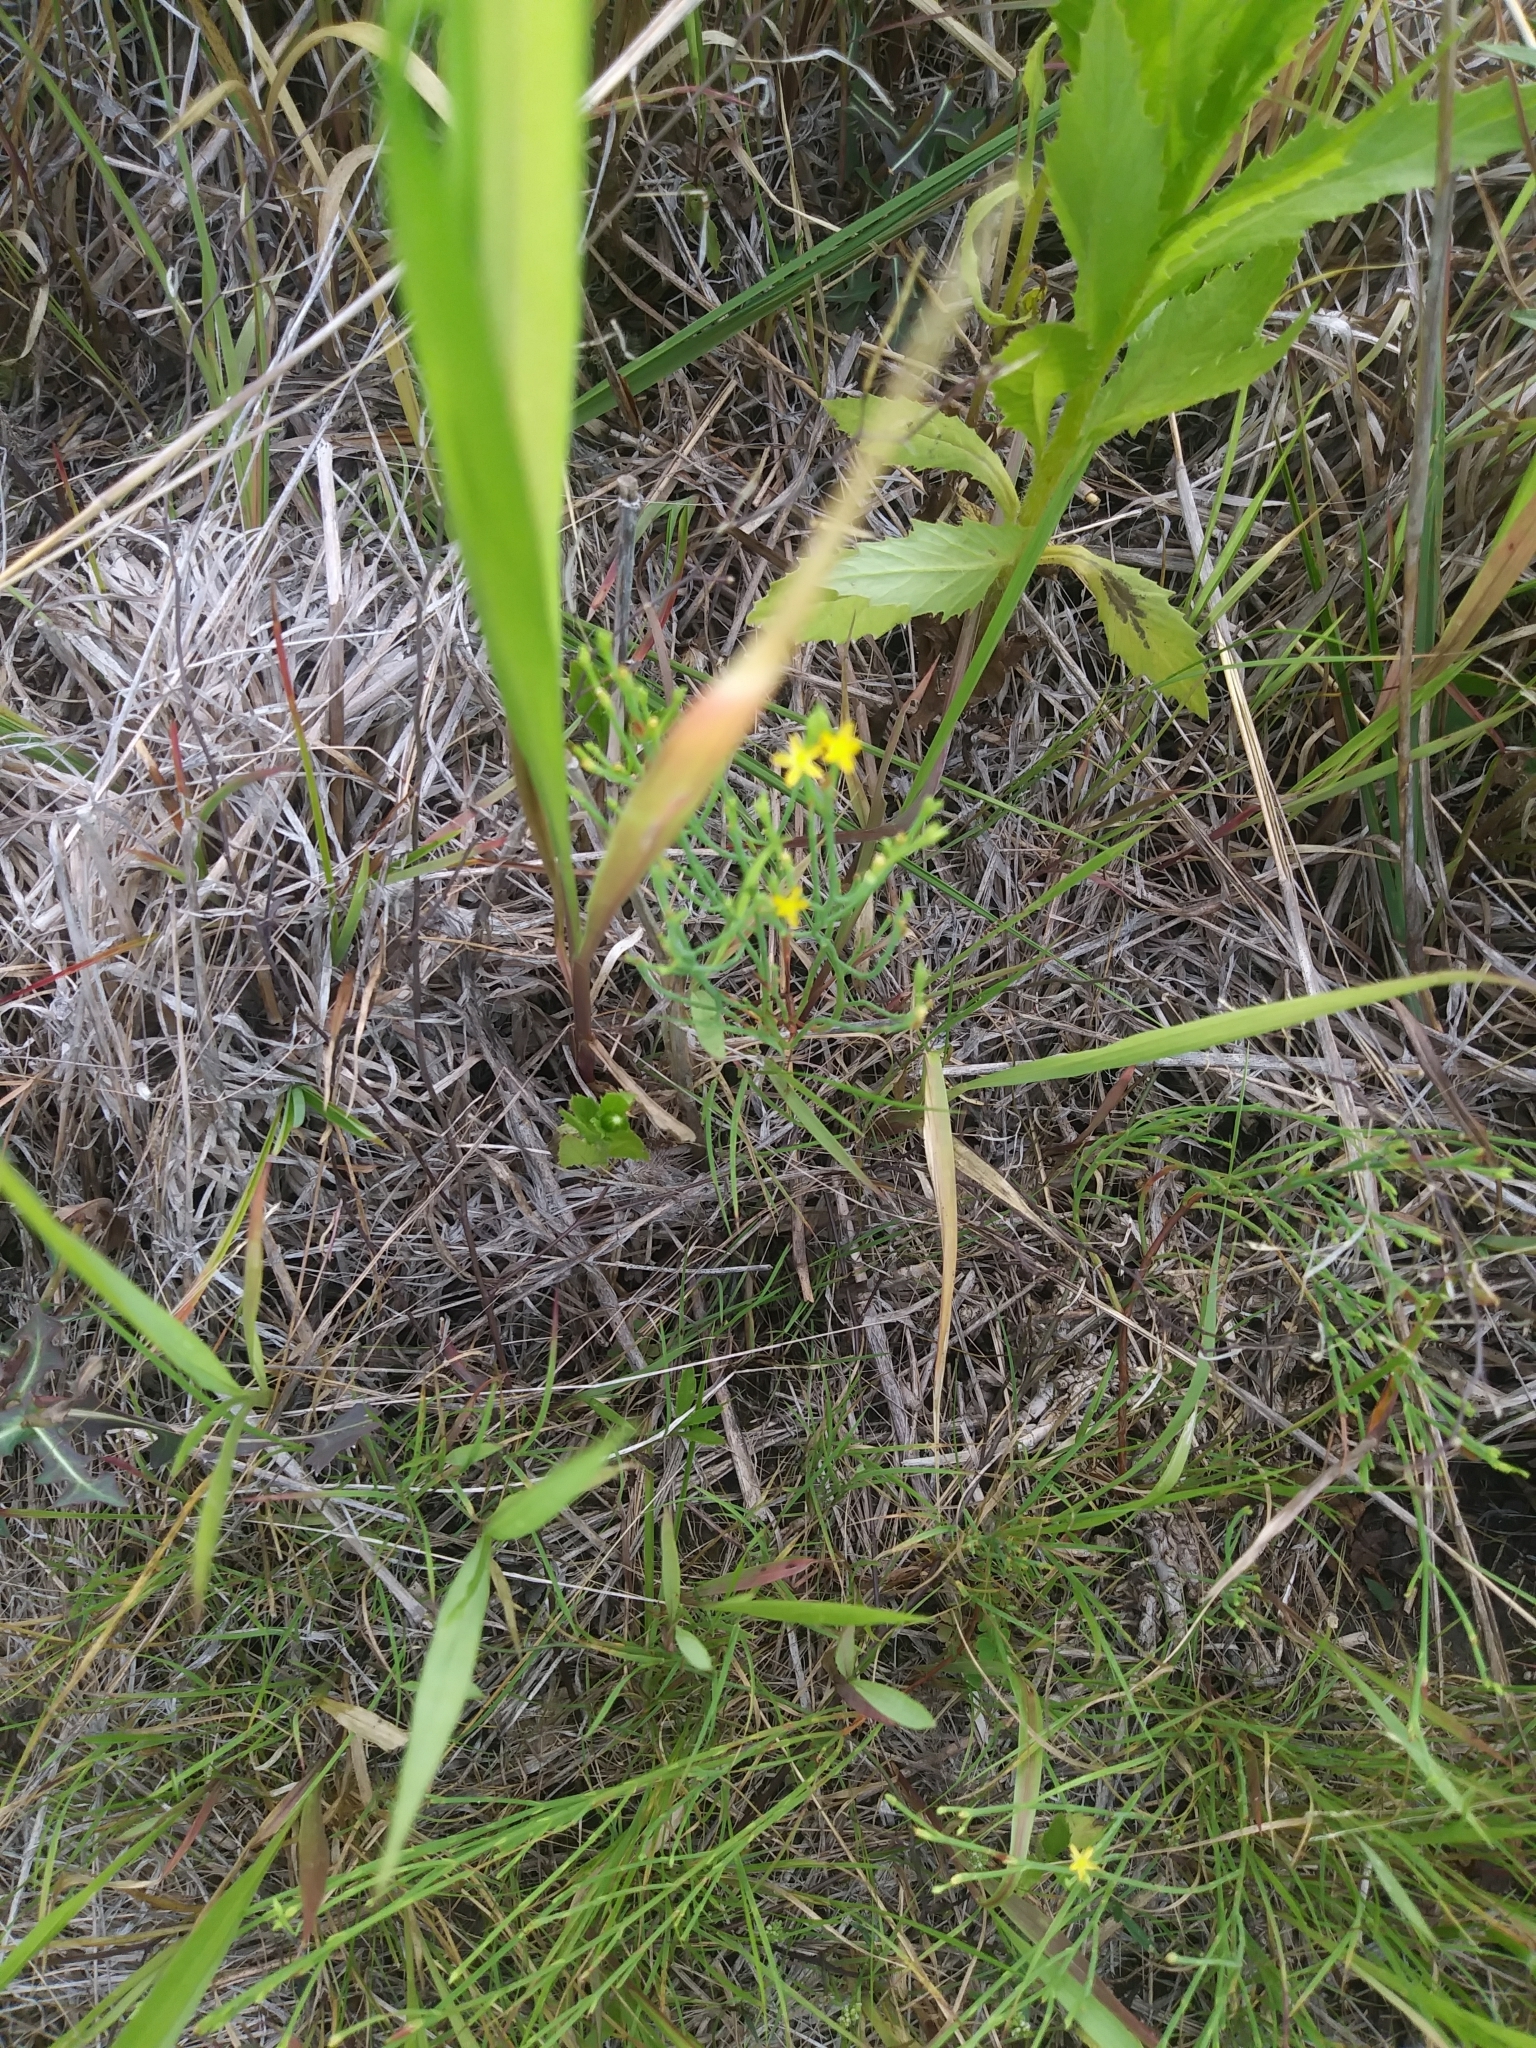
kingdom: Plantae
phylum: Tracheophyta
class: Magnoliopsida
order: Malpighiales
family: Hypericaceae
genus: Hypericum
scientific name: Hypericum gentianoides
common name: Gentian-leaved st. john's-wort
